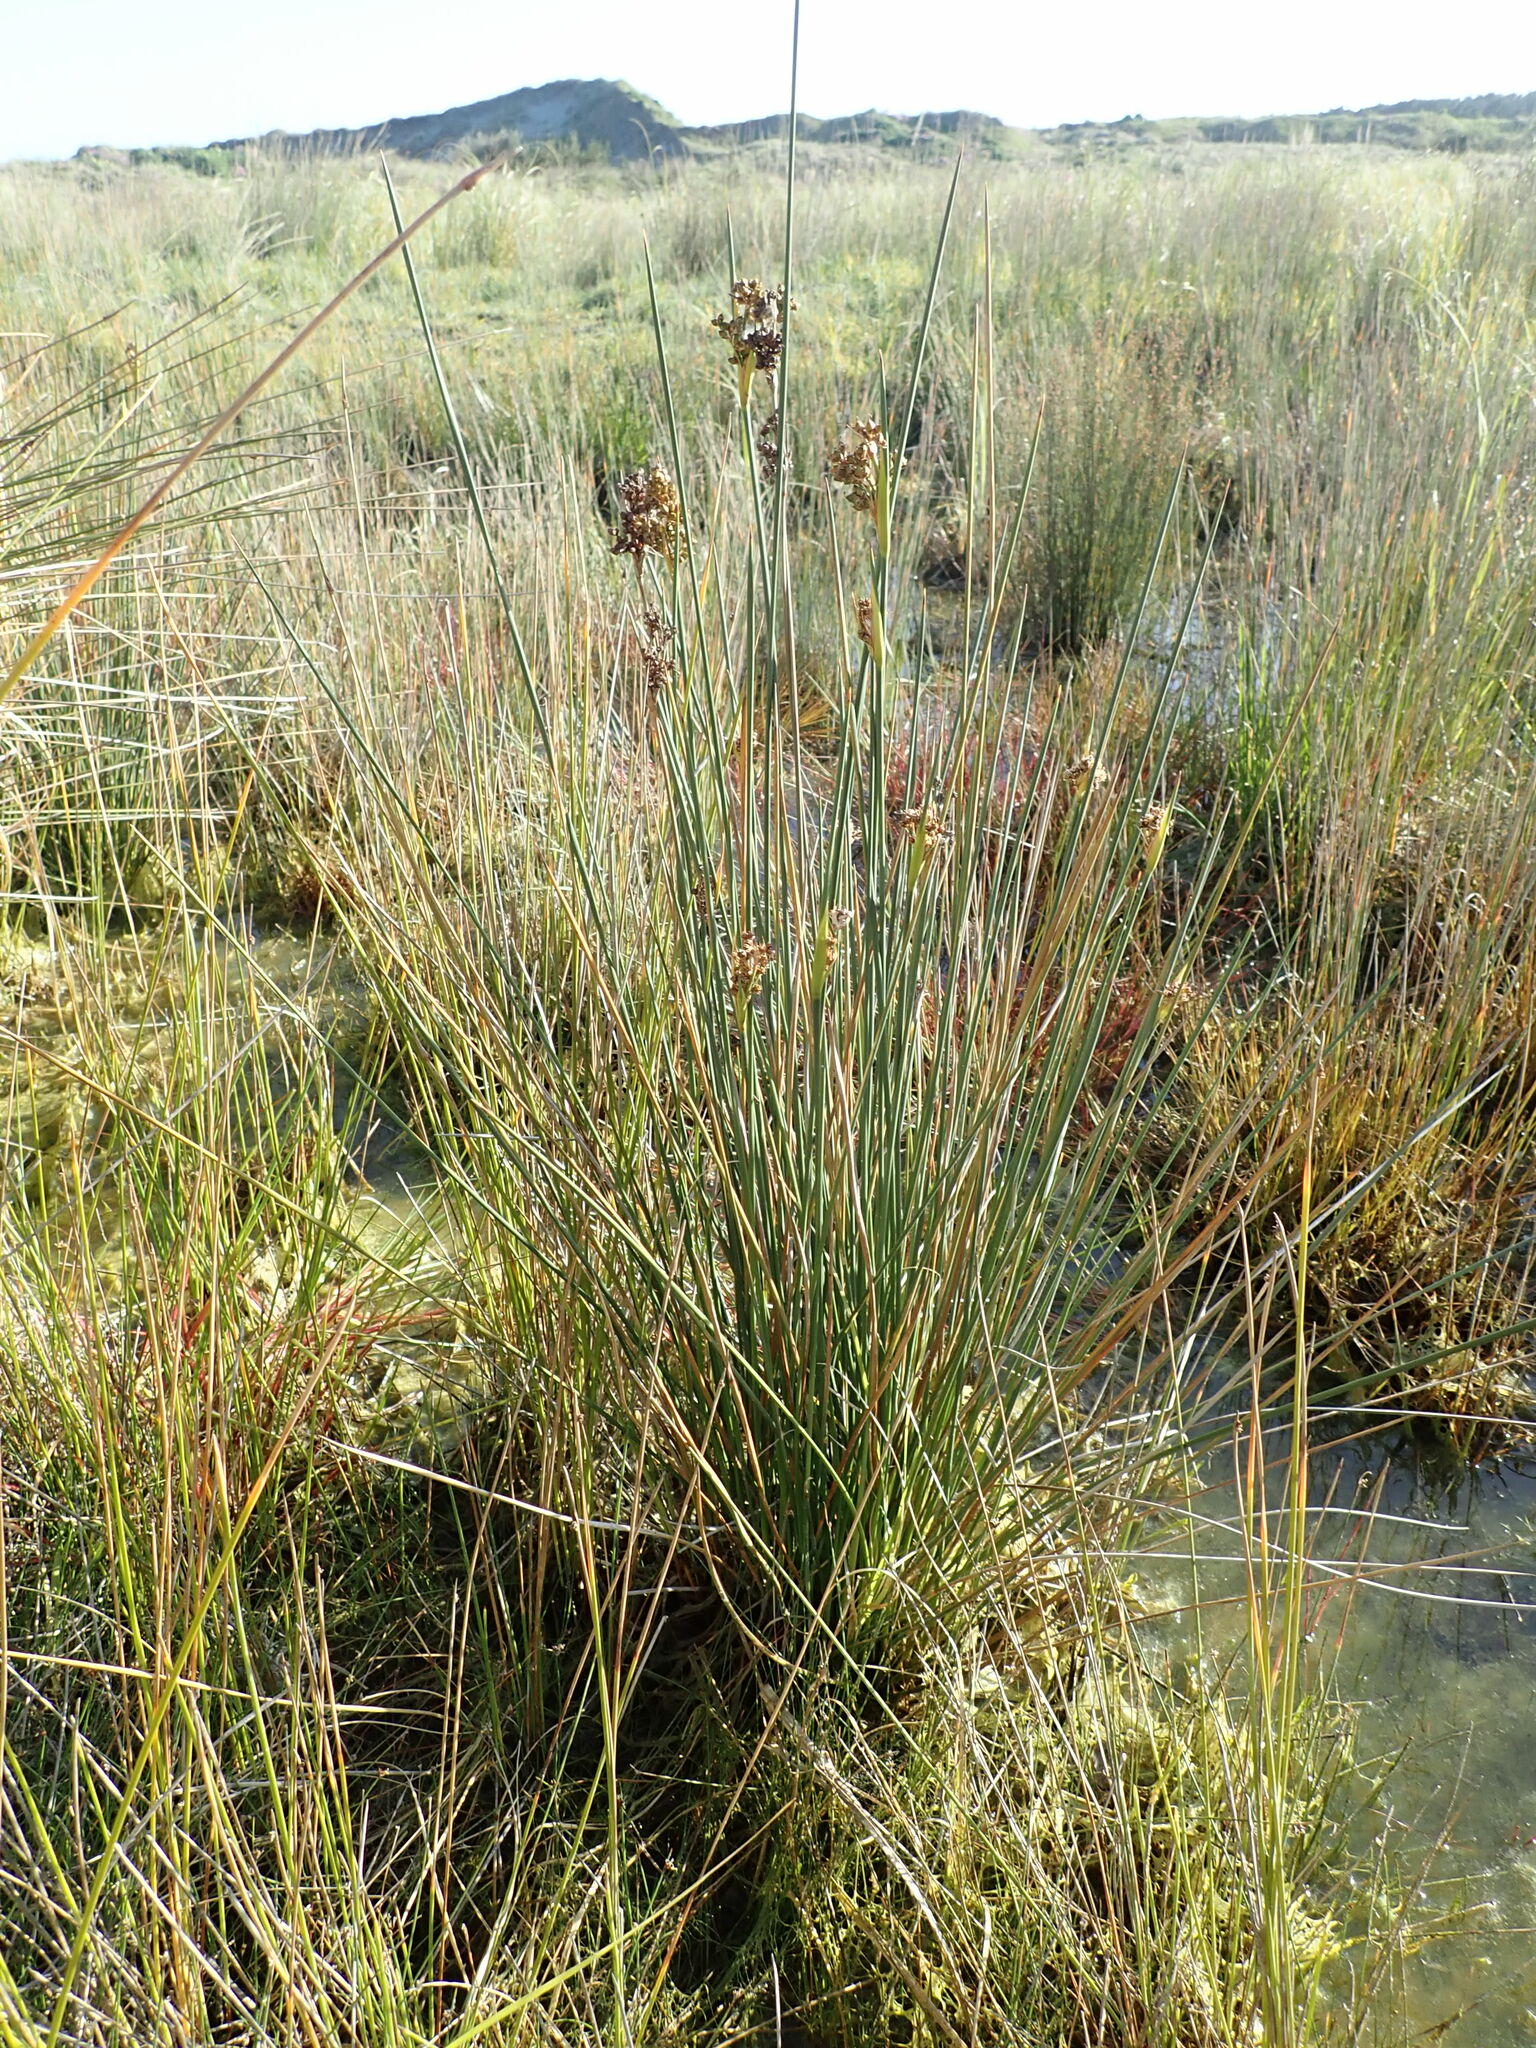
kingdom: Plantae
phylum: Tracheophyta
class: Liliopsida
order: Poales
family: Juncaceae
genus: Juncus
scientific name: Juncus acutus
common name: Sharp rush
